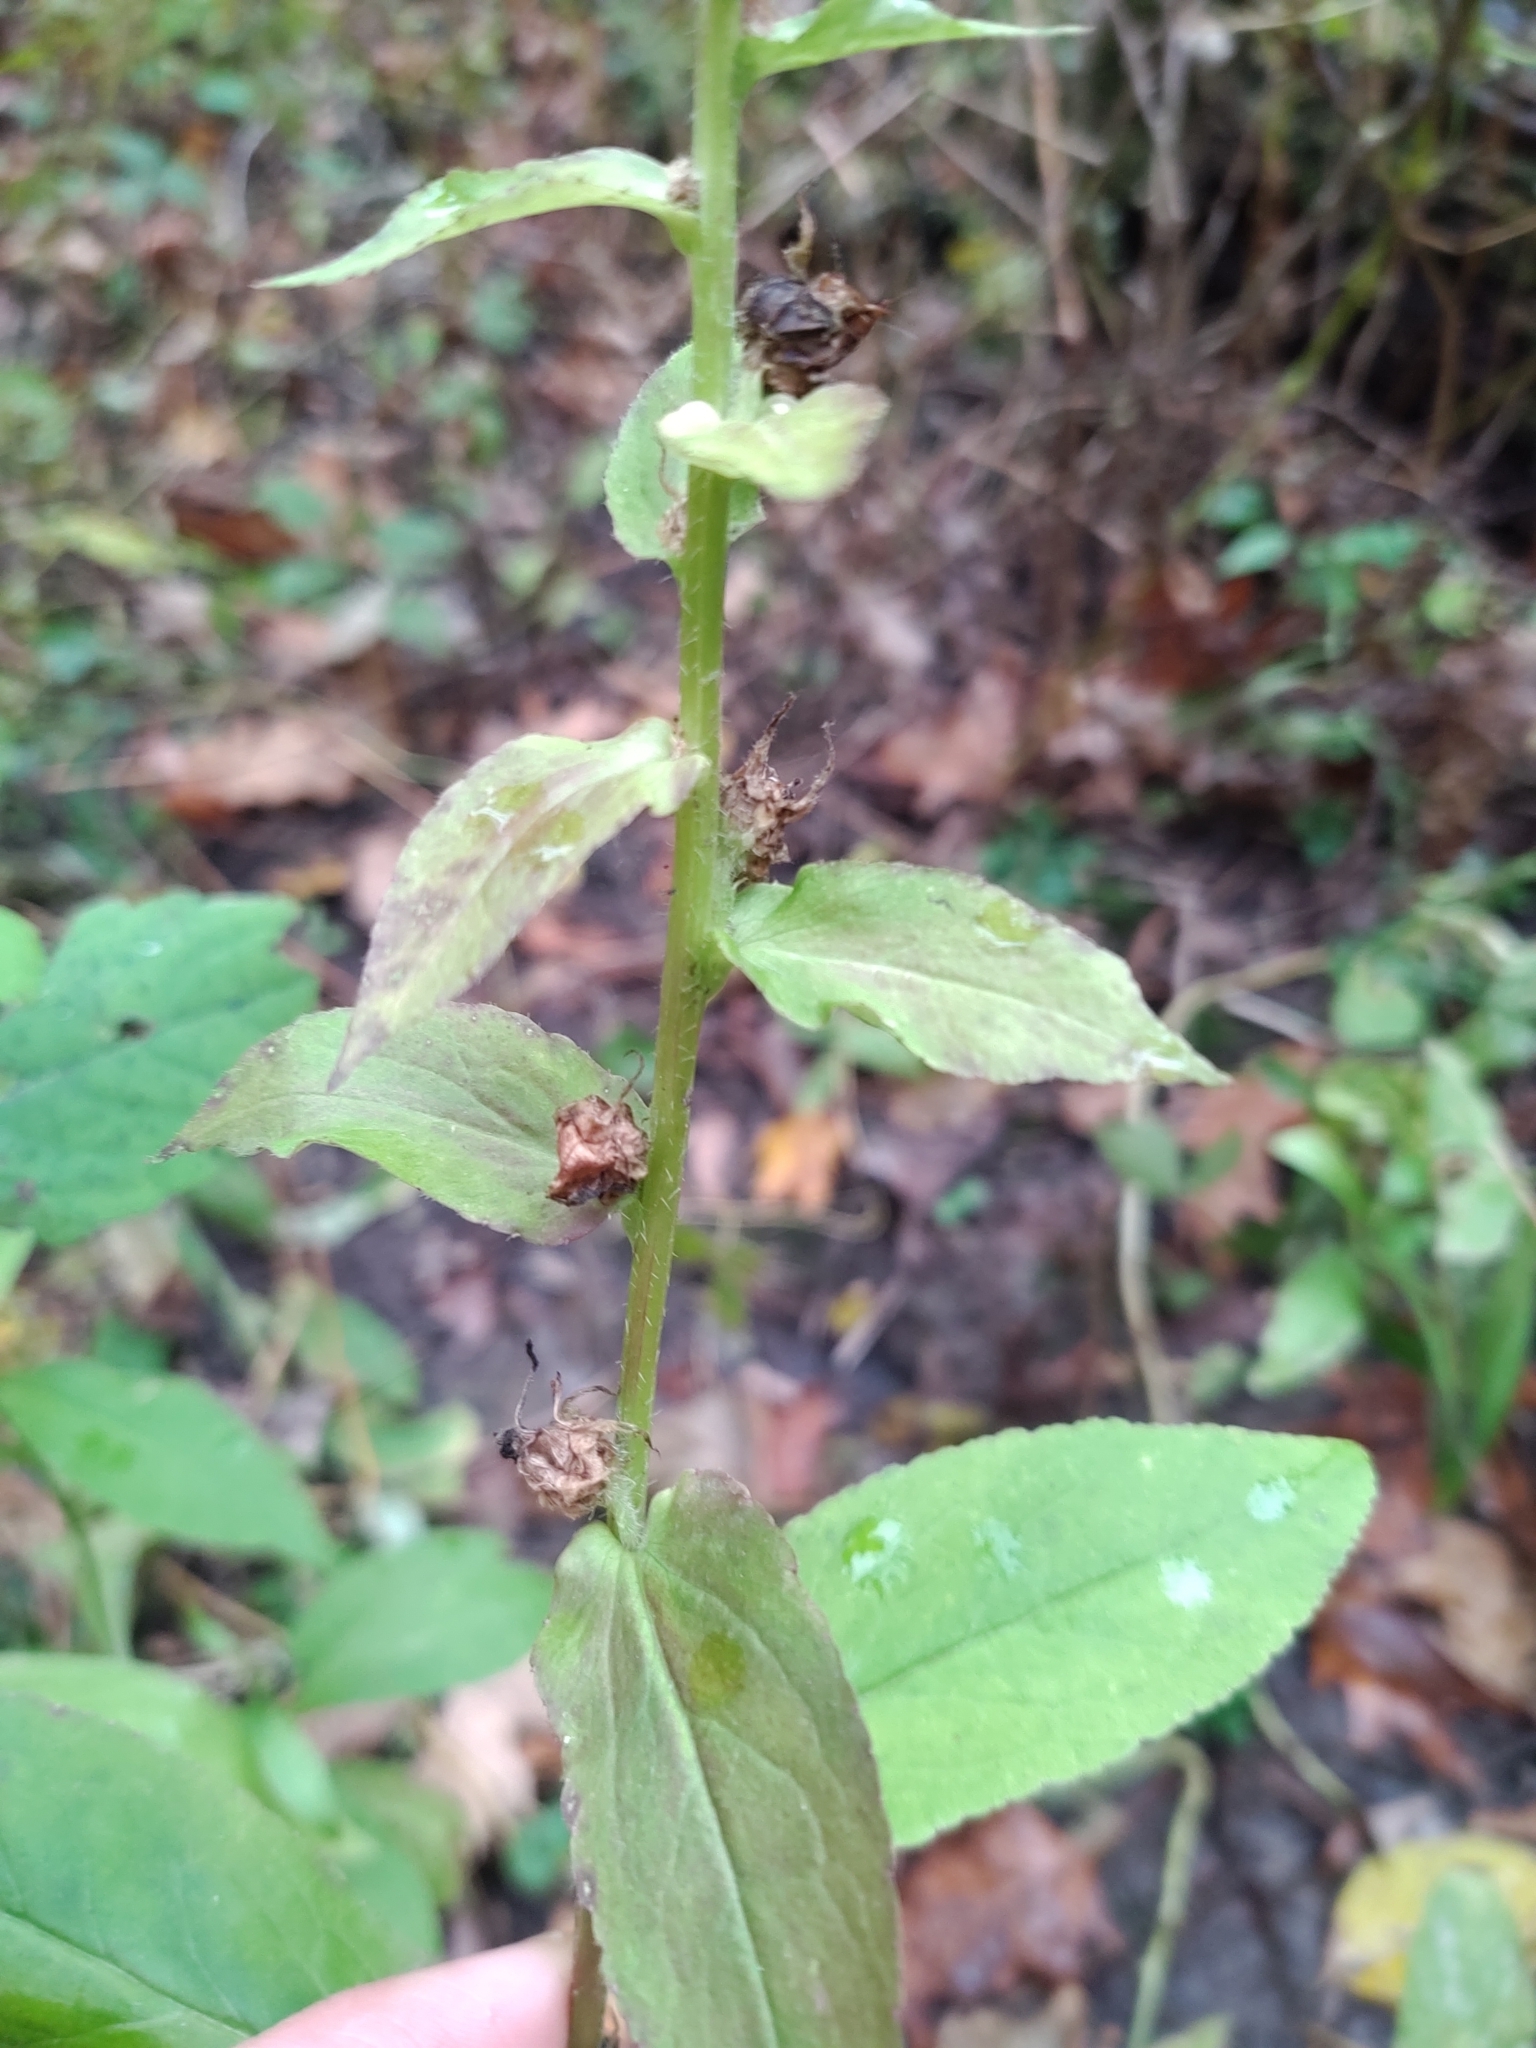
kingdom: Plantae
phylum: Tracheophyta
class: Magnoliopsida
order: Asterales
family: Campanulaceae
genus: Lobelia
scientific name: Lobelia siphilitica
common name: Great lobelia
